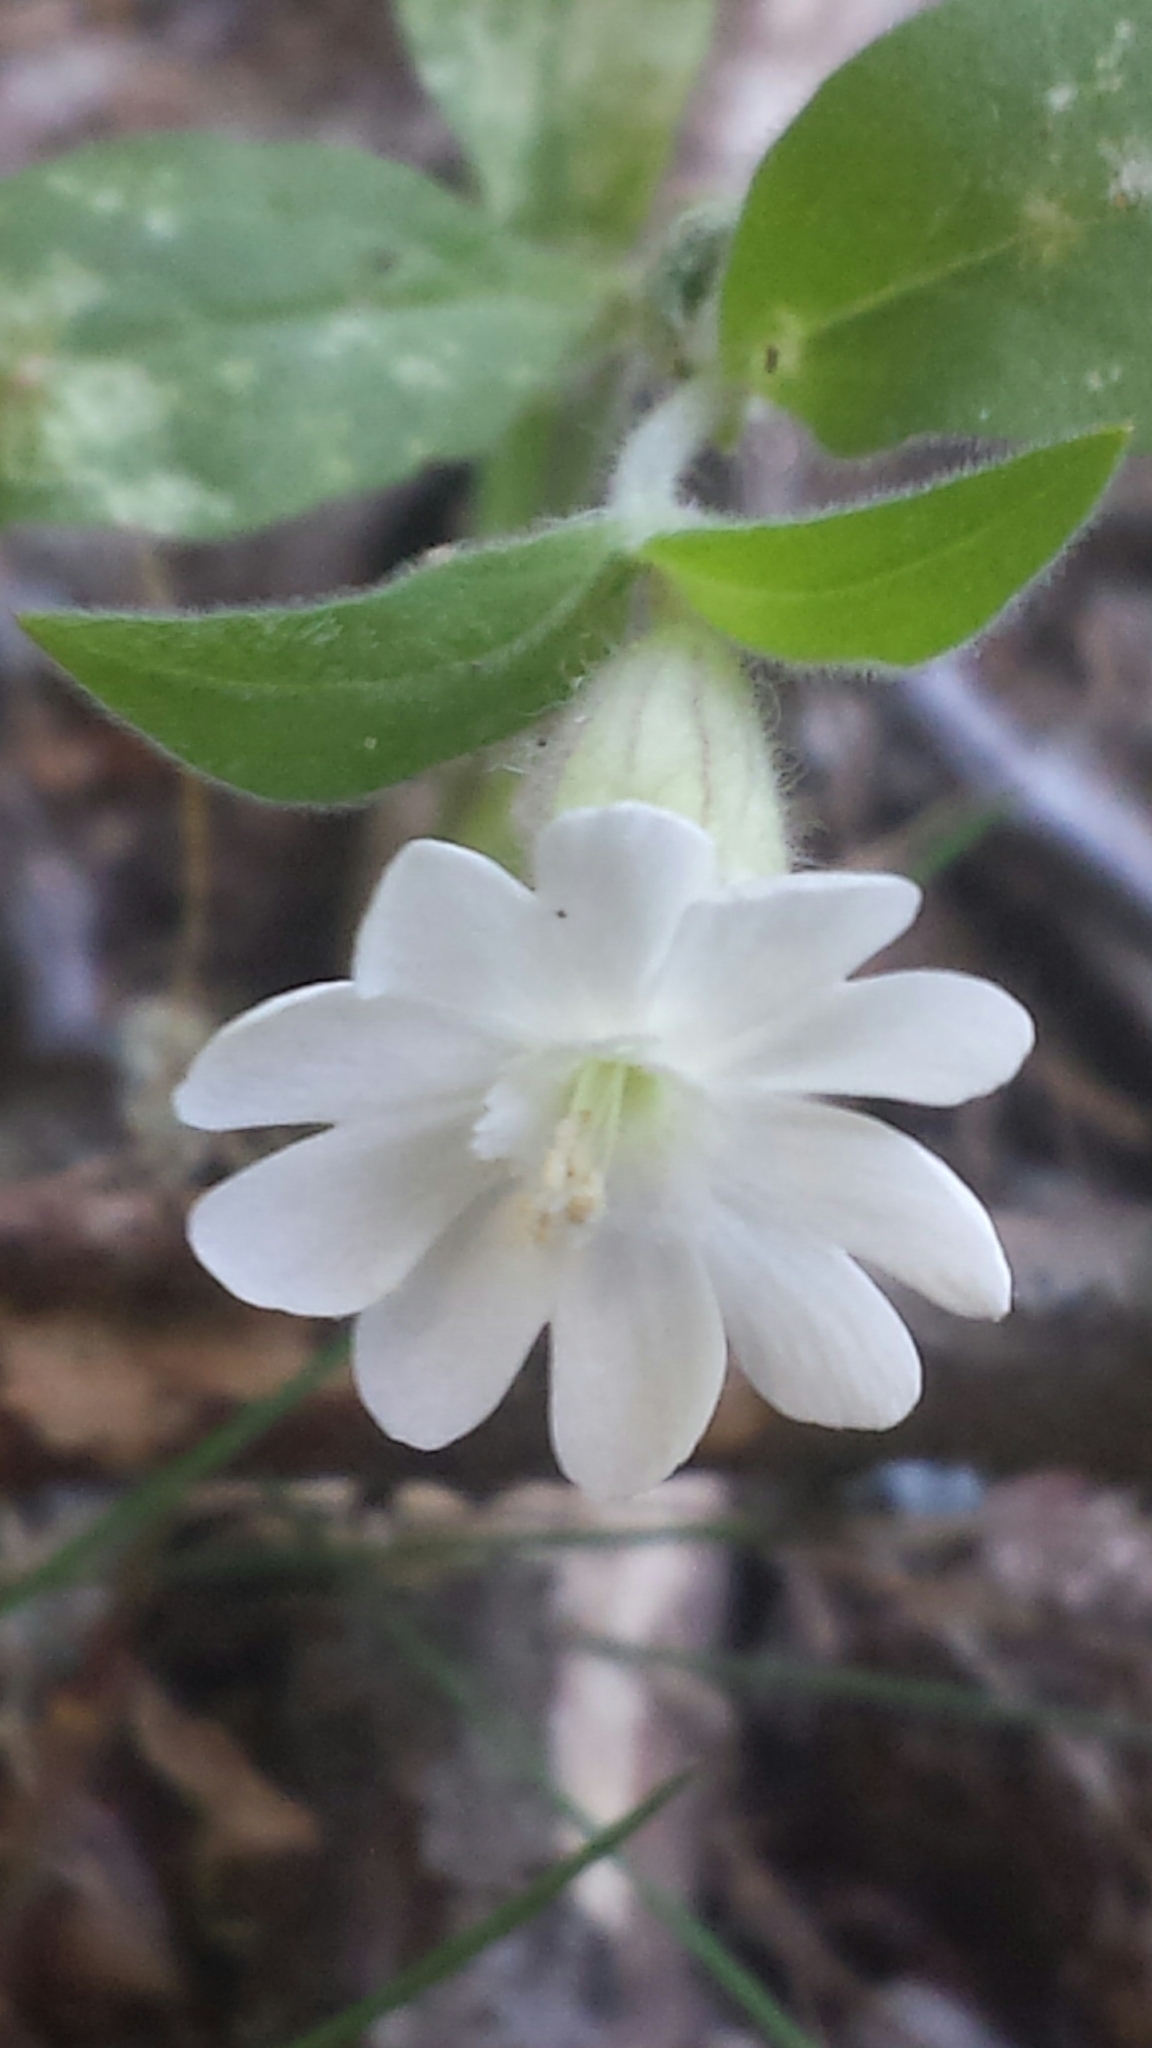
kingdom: Plantae
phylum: Tracheophyta
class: Magnoliopsida
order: Caryophyllales
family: Caryophyllaceae
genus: Silene
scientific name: Silene latifolia
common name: White campion
